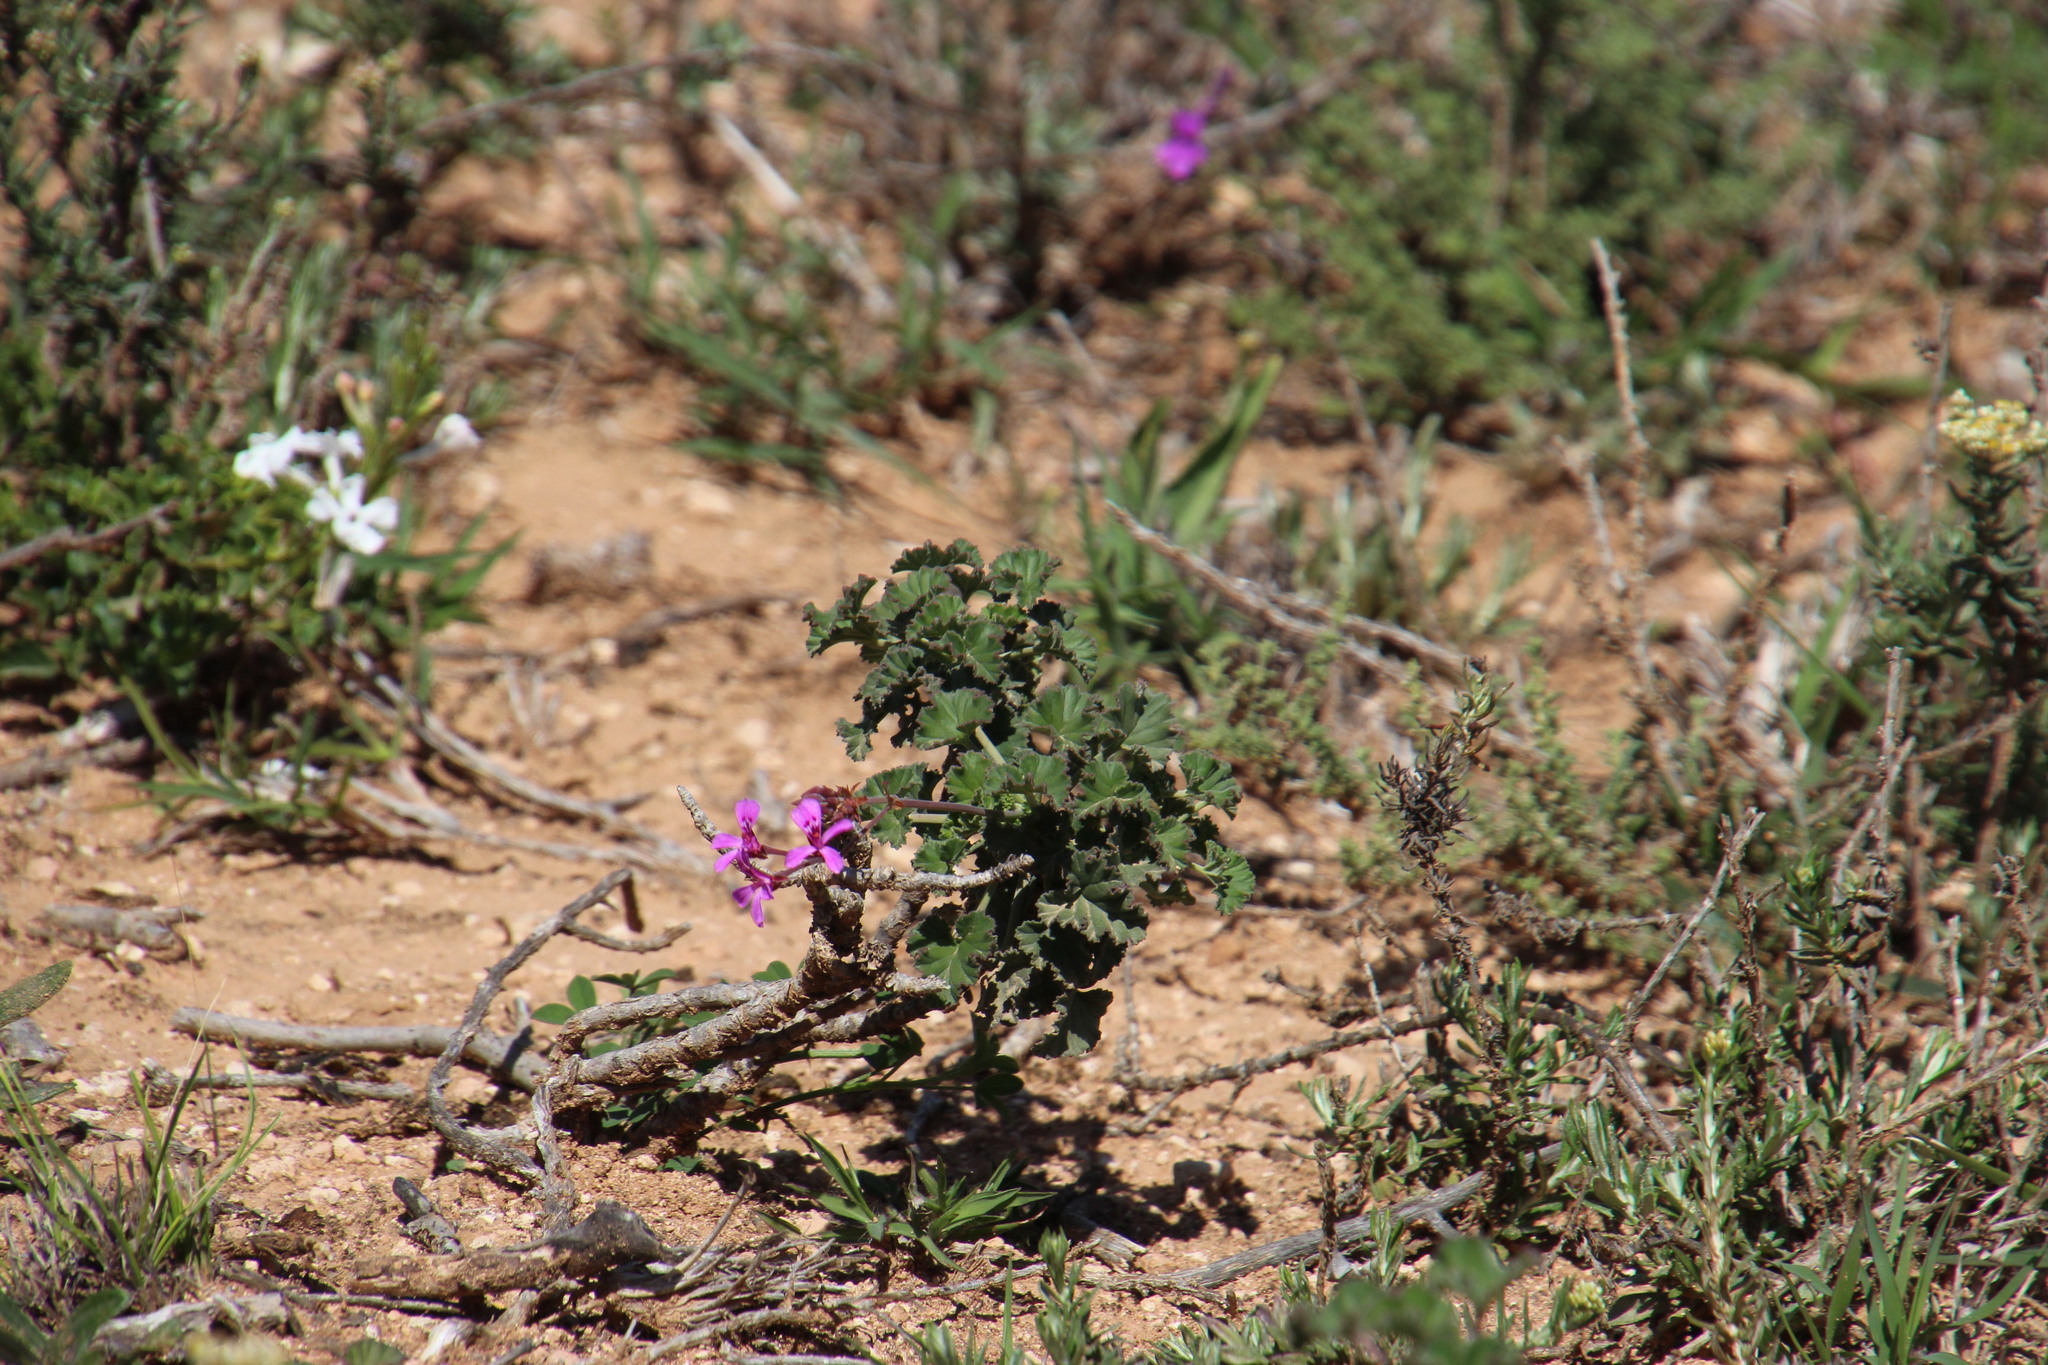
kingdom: Plantae
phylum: Tracheophyta
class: Magnoliopsida
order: Geraniales
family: Geraniaceae
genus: Pelargonium
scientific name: Pelargonium reniforme
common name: Kidney-leaf pelargonium
